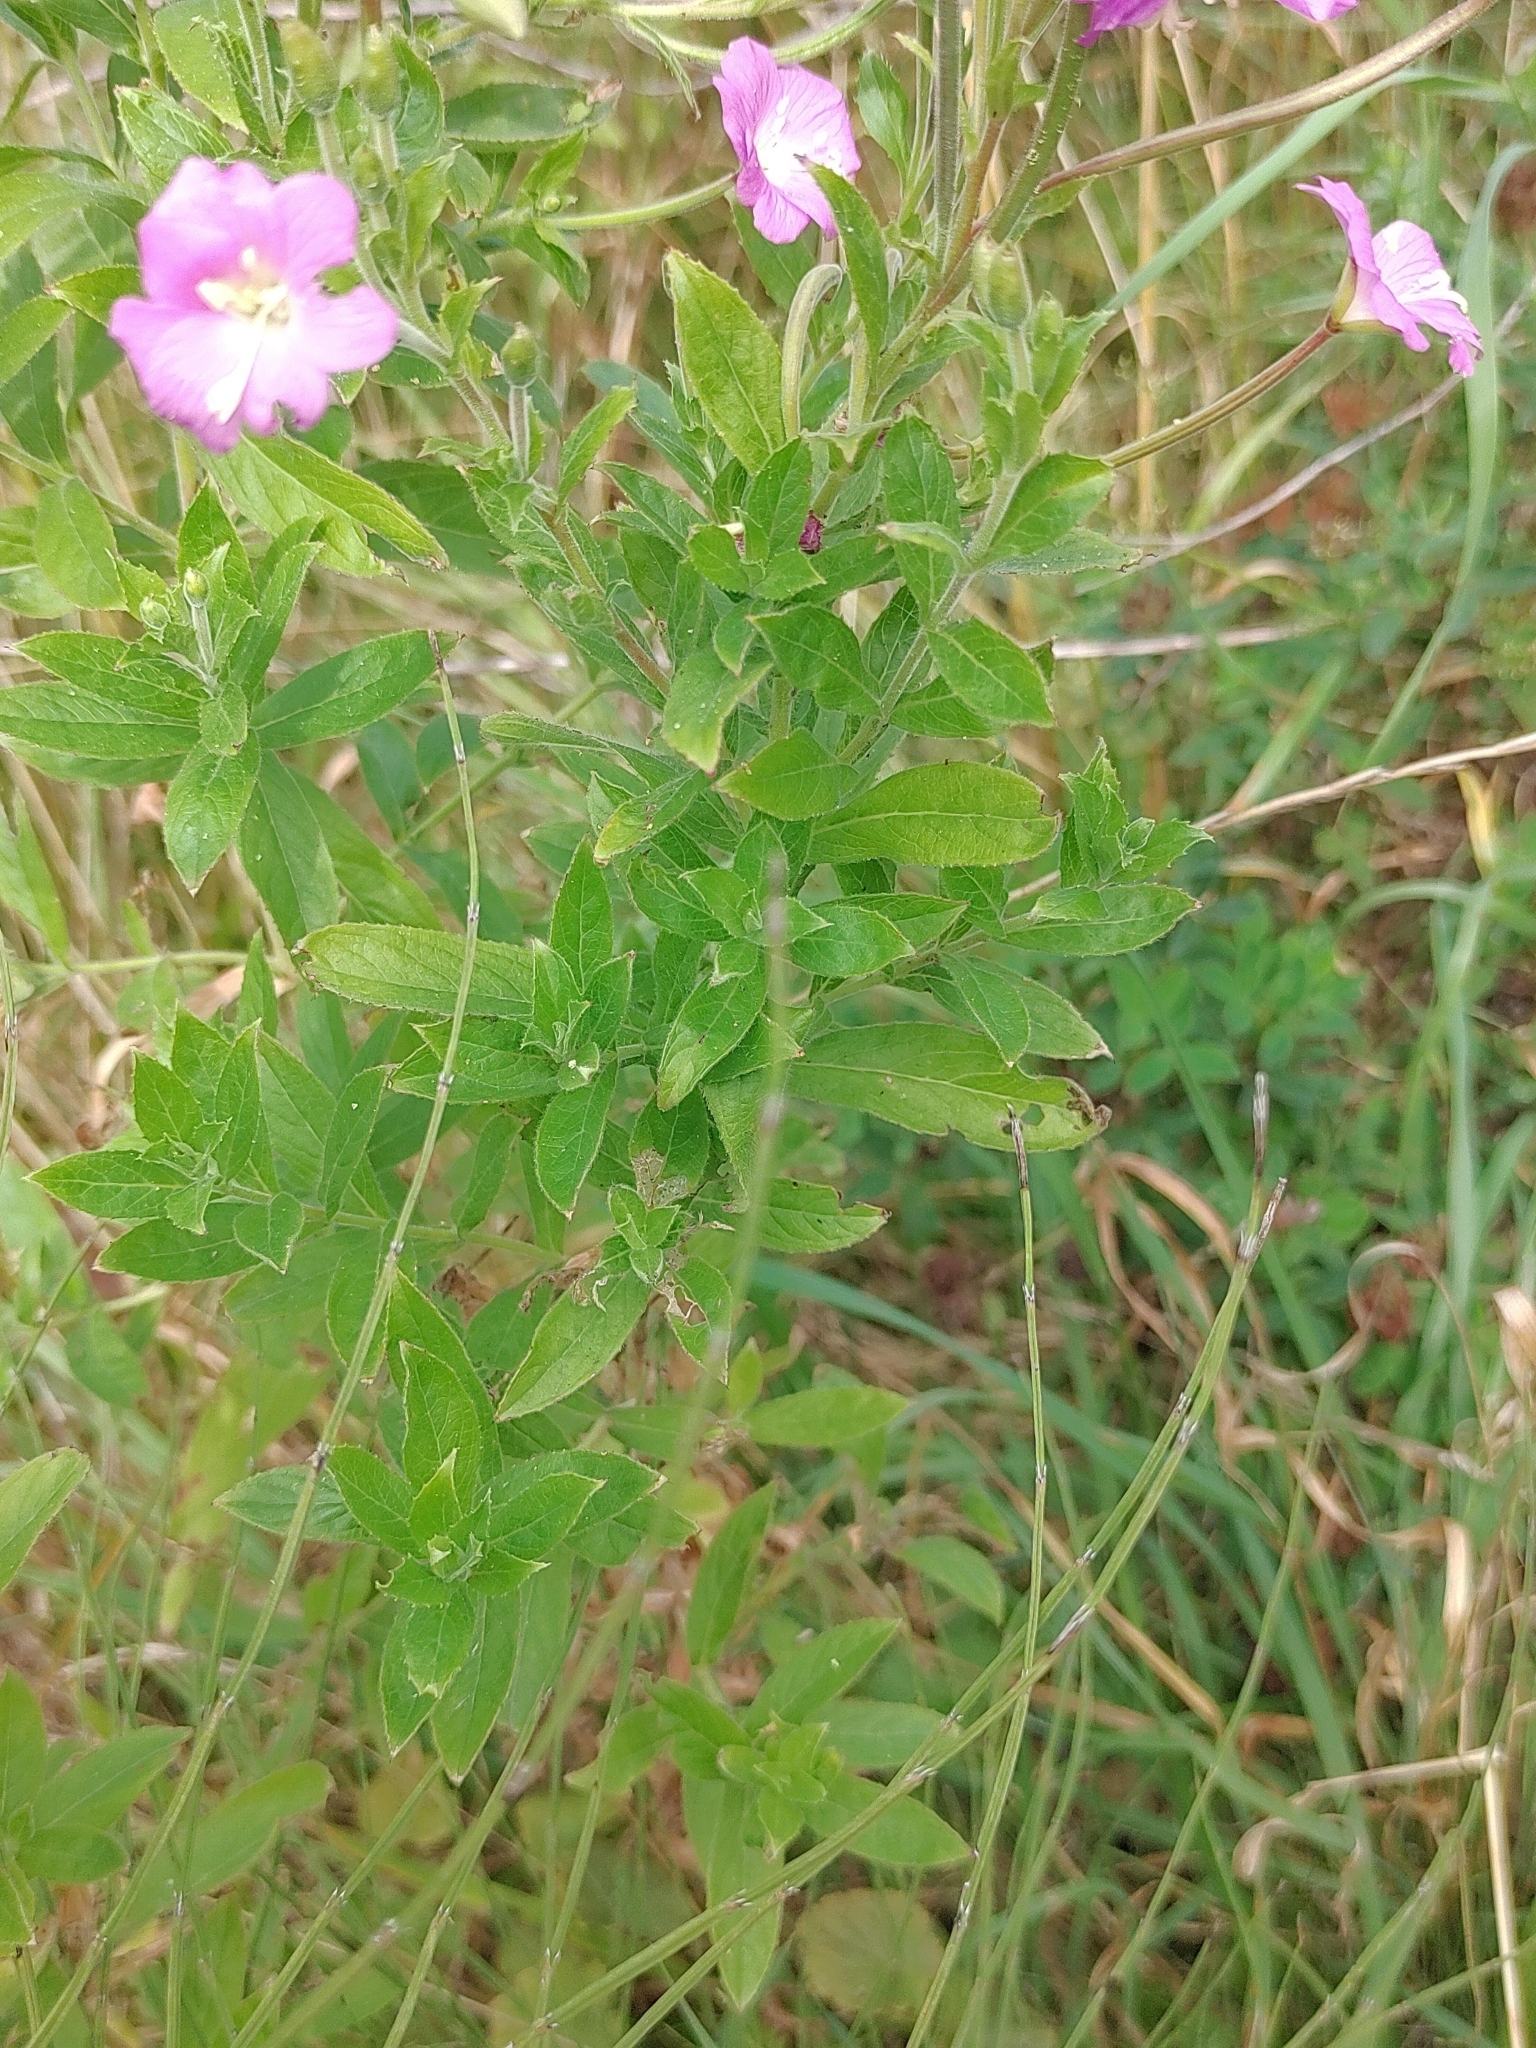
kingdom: Plantae
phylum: Tracheophyta
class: Magnoliopsida
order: Myrtales
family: Onagraceae
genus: Epilobium
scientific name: Epilobium hirsutum
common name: Great willowherb
